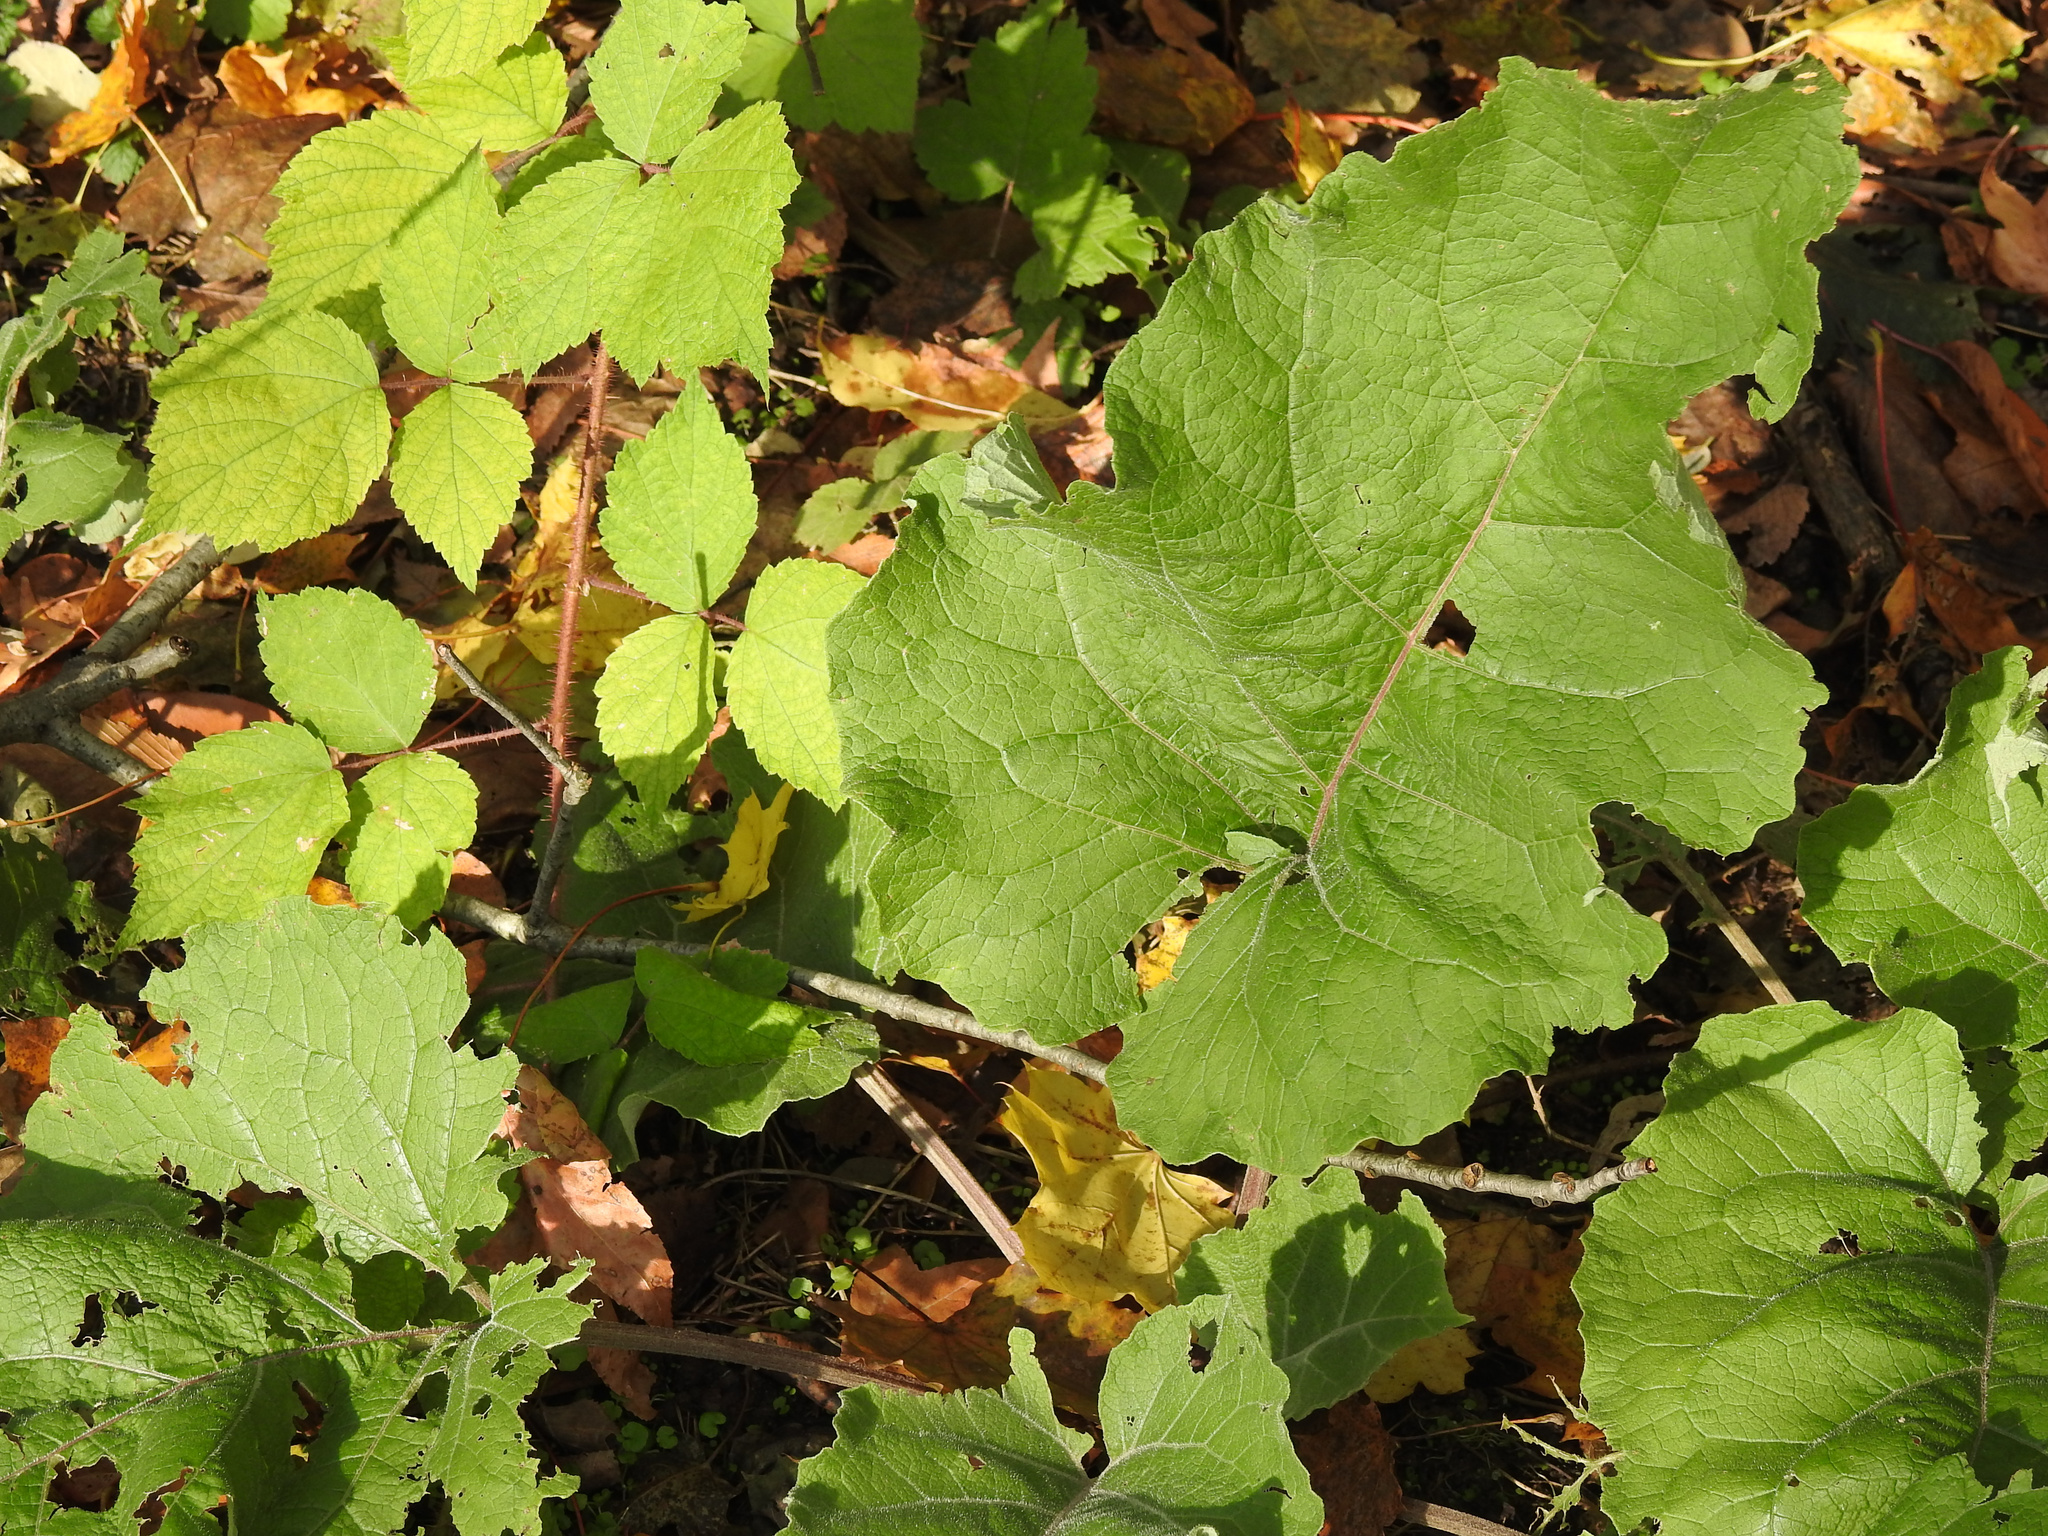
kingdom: Plantae
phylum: Tracheophyta
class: Magnoliopsida
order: Asterales
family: Asteraceae
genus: Arctium
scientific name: Arctium
